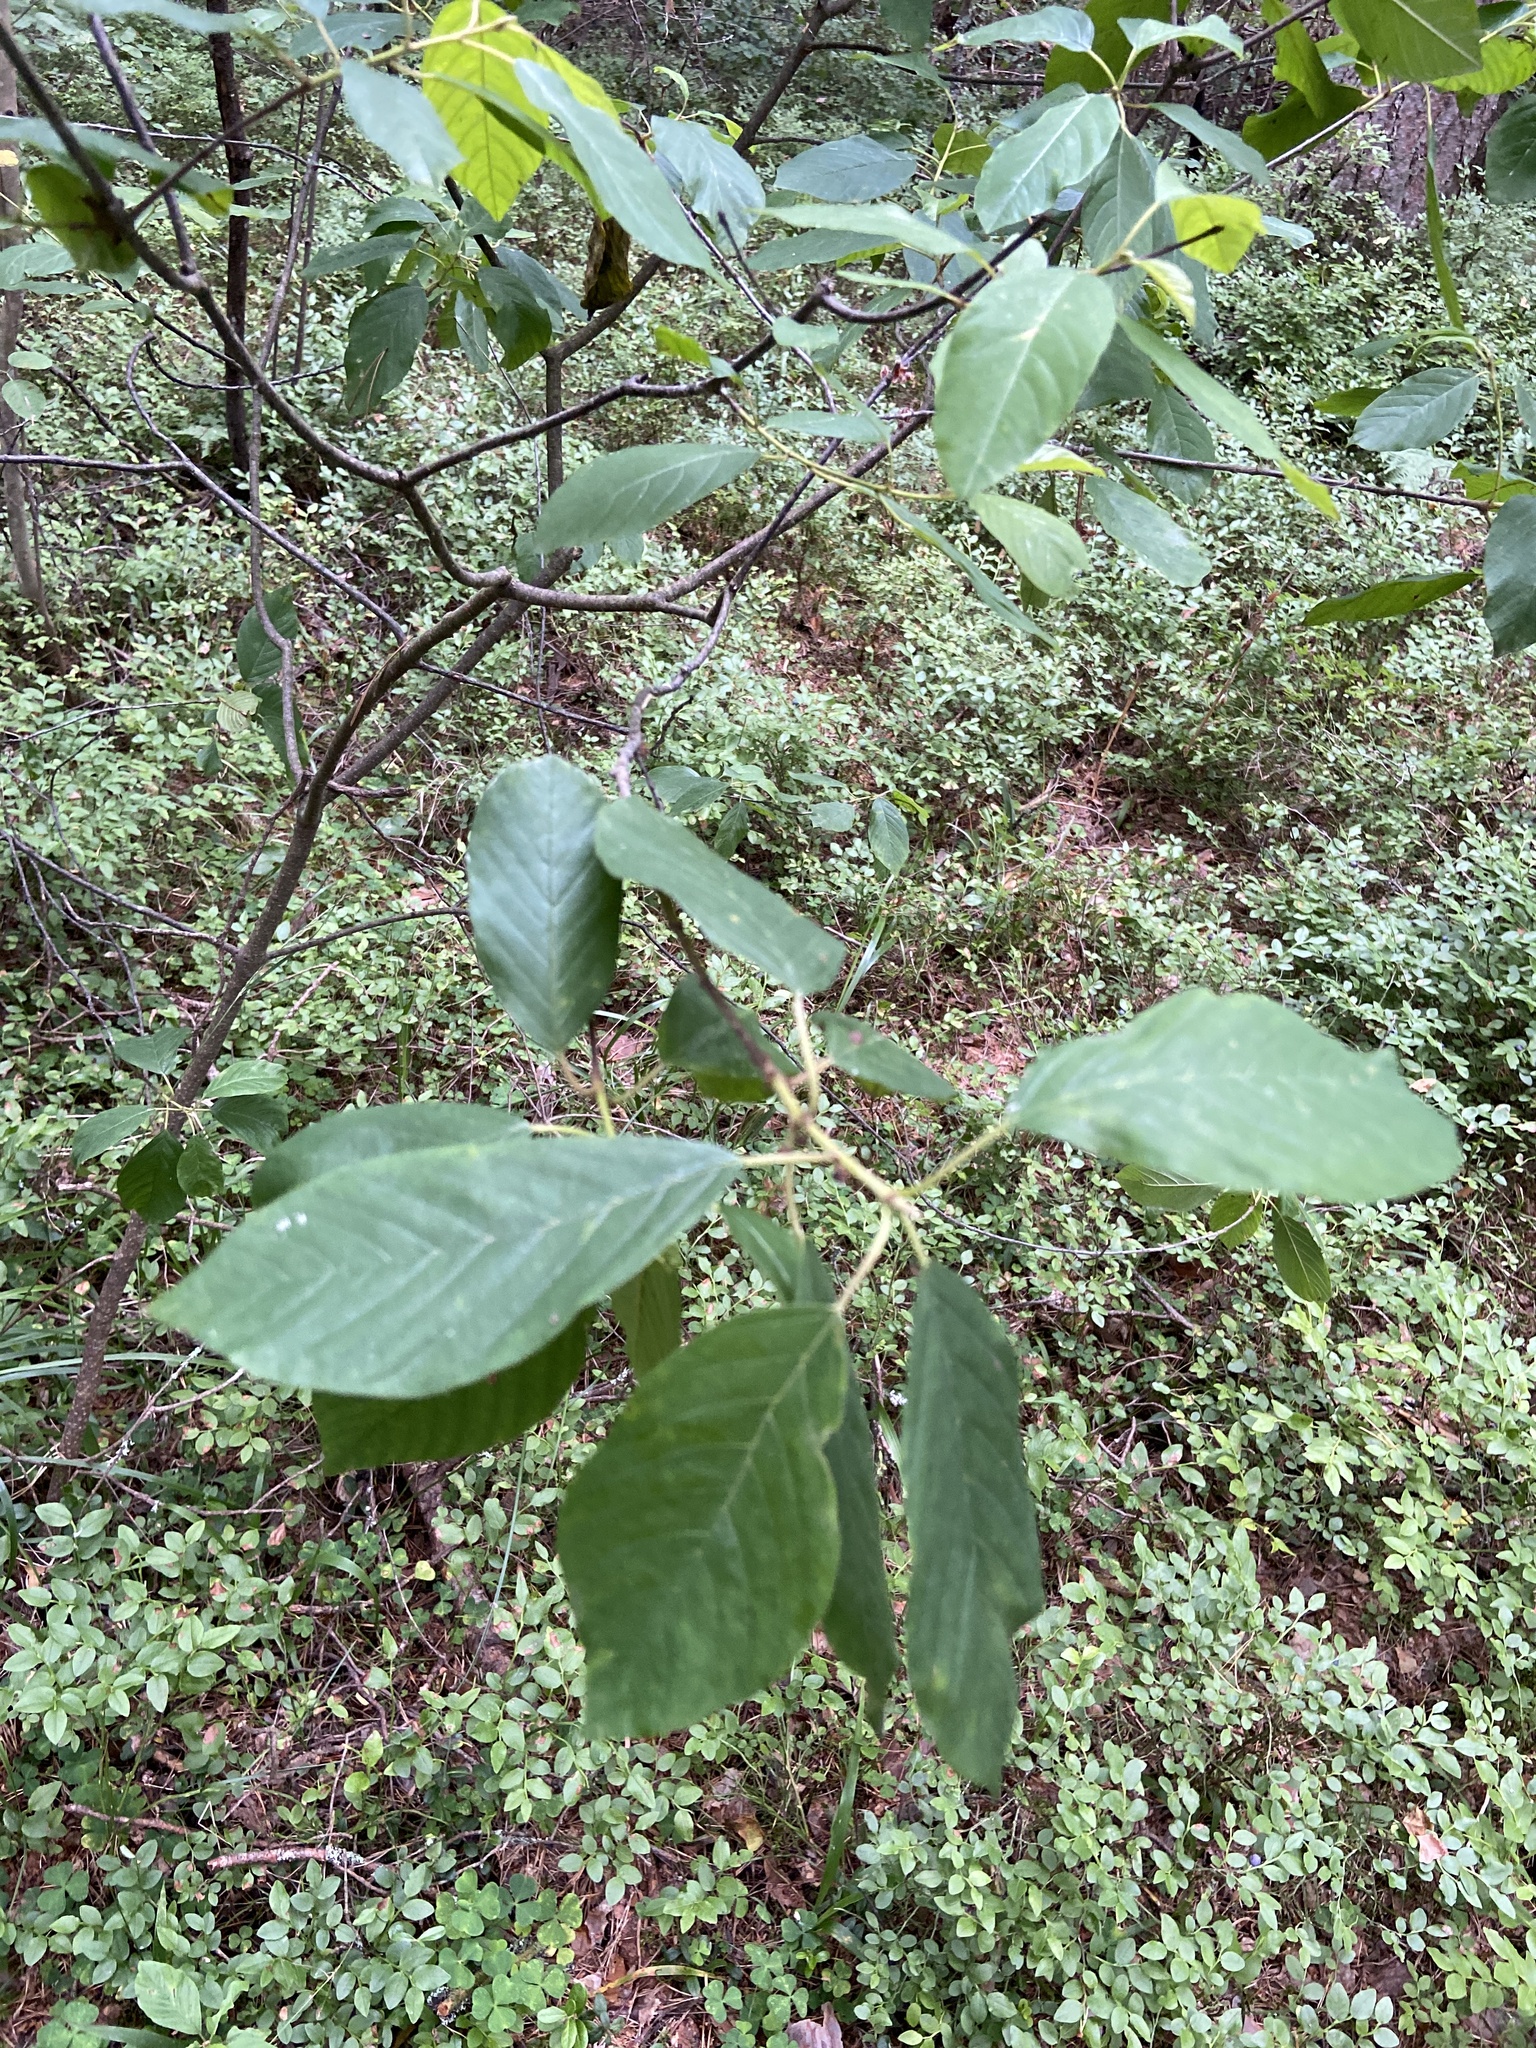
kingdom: Plantae
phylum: Tracheophyta
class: Magnoliopsida
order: Rosales
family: Rhamnaceae
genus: Frangula
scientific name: Frangula alnus
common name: Alder buckthorn
